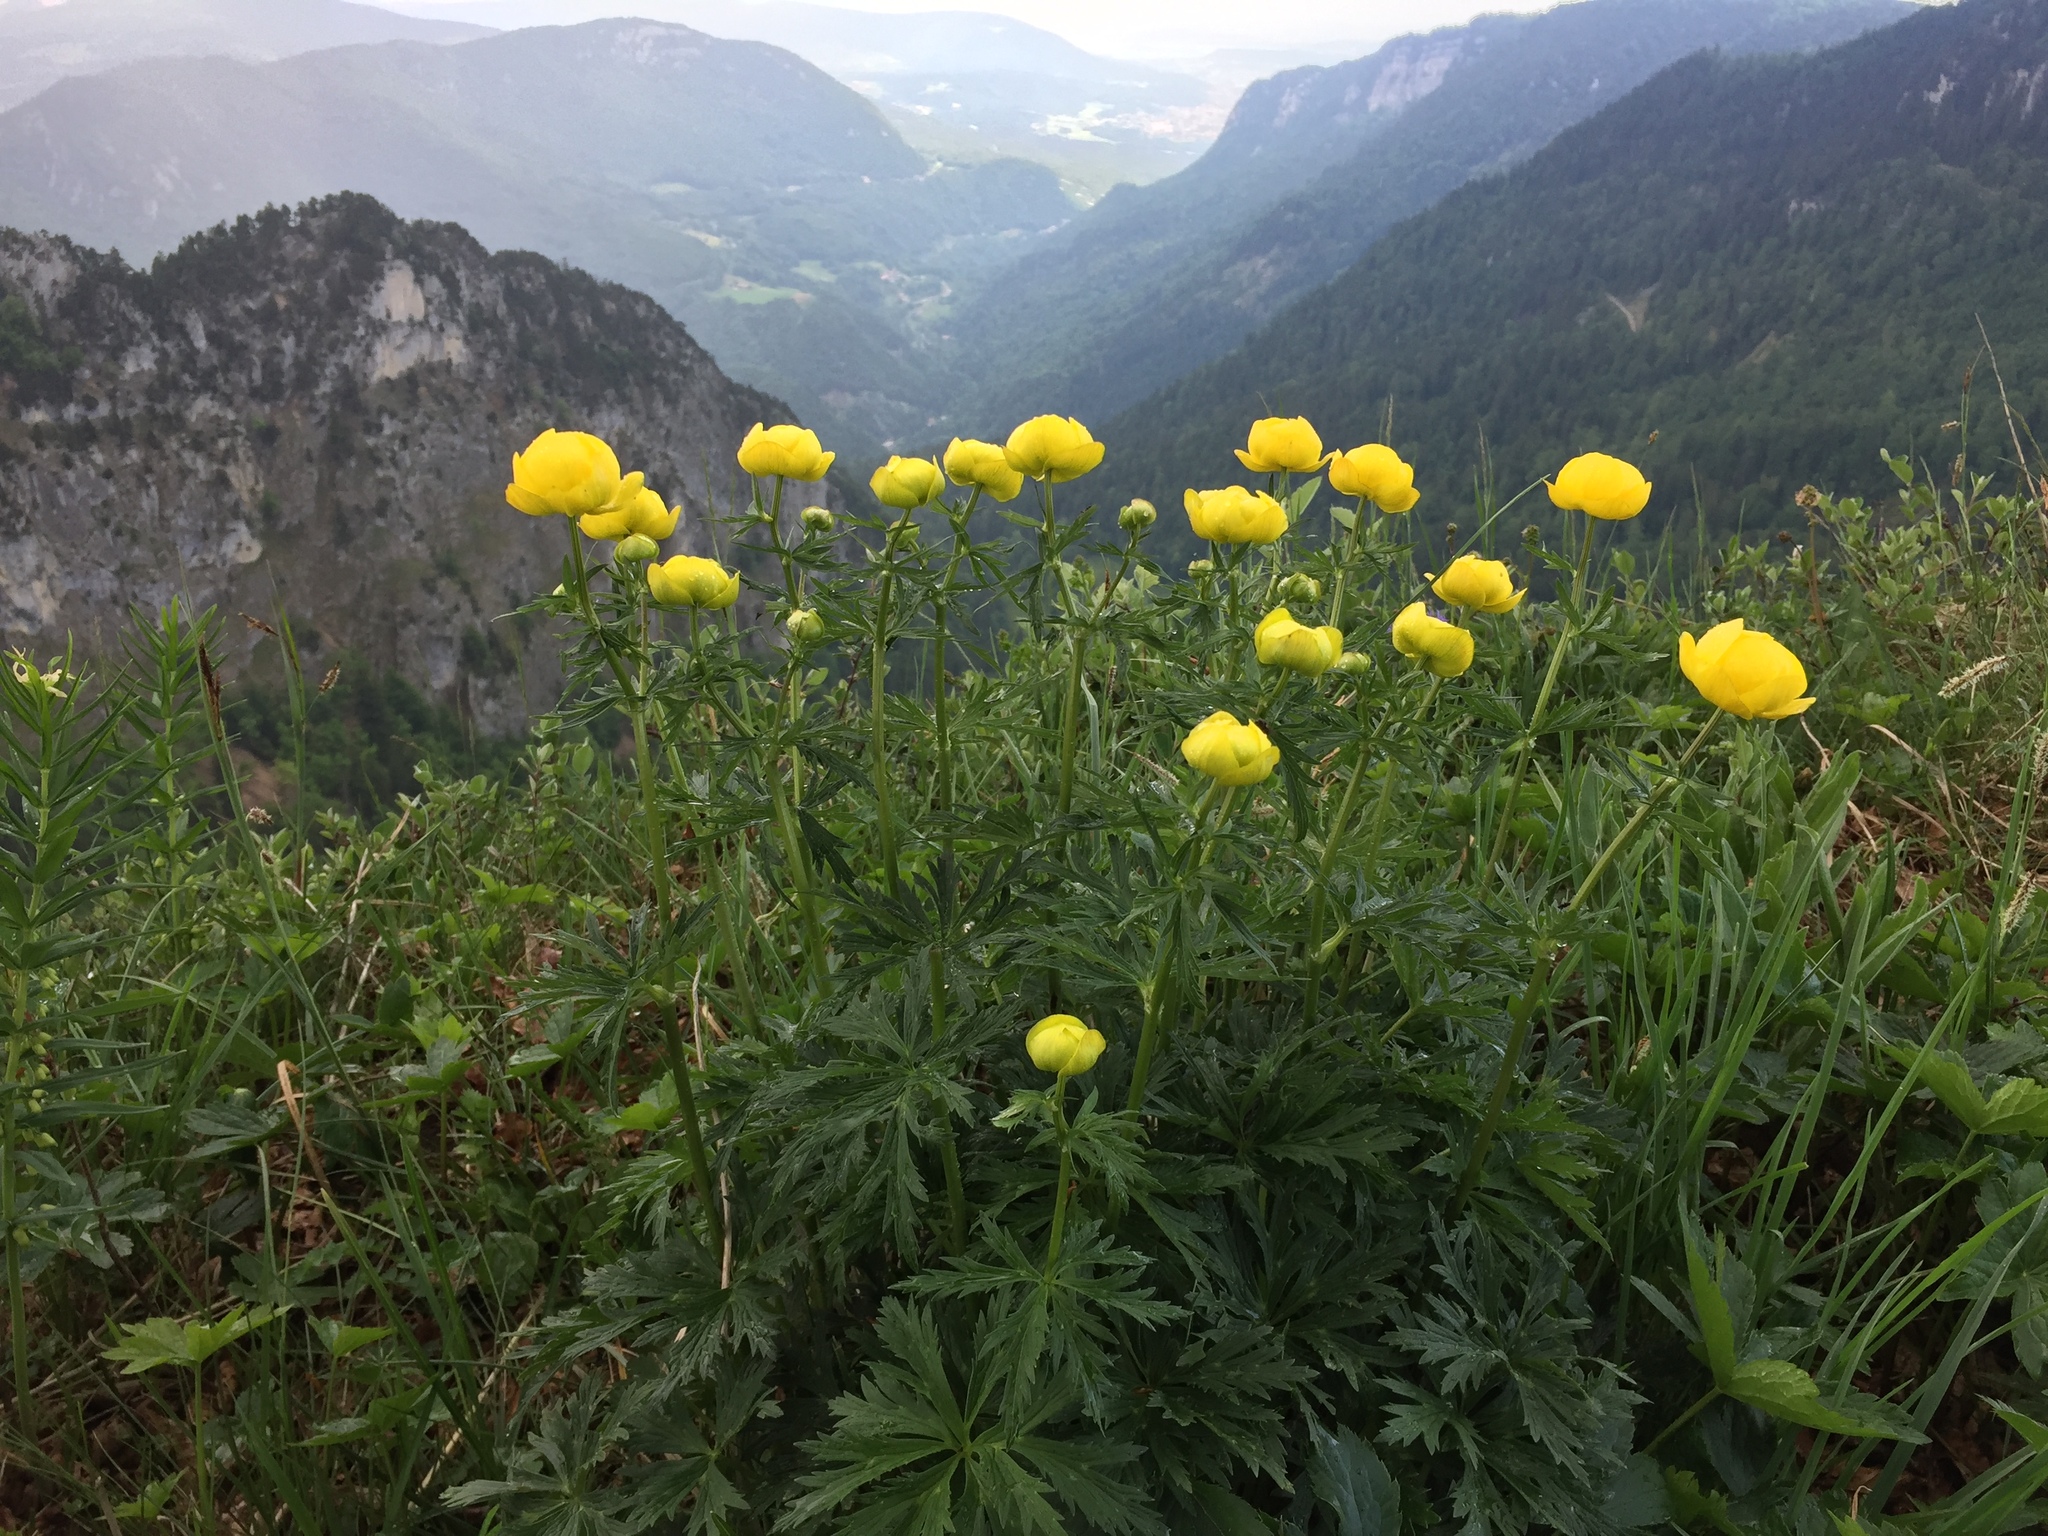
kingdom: Plantae
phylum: Tracheophyta
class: Magnoliopsida
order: Ranunculales
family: Ranunculaceae
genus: Trollius
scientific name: Trollius europaeus
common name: European globeflower
